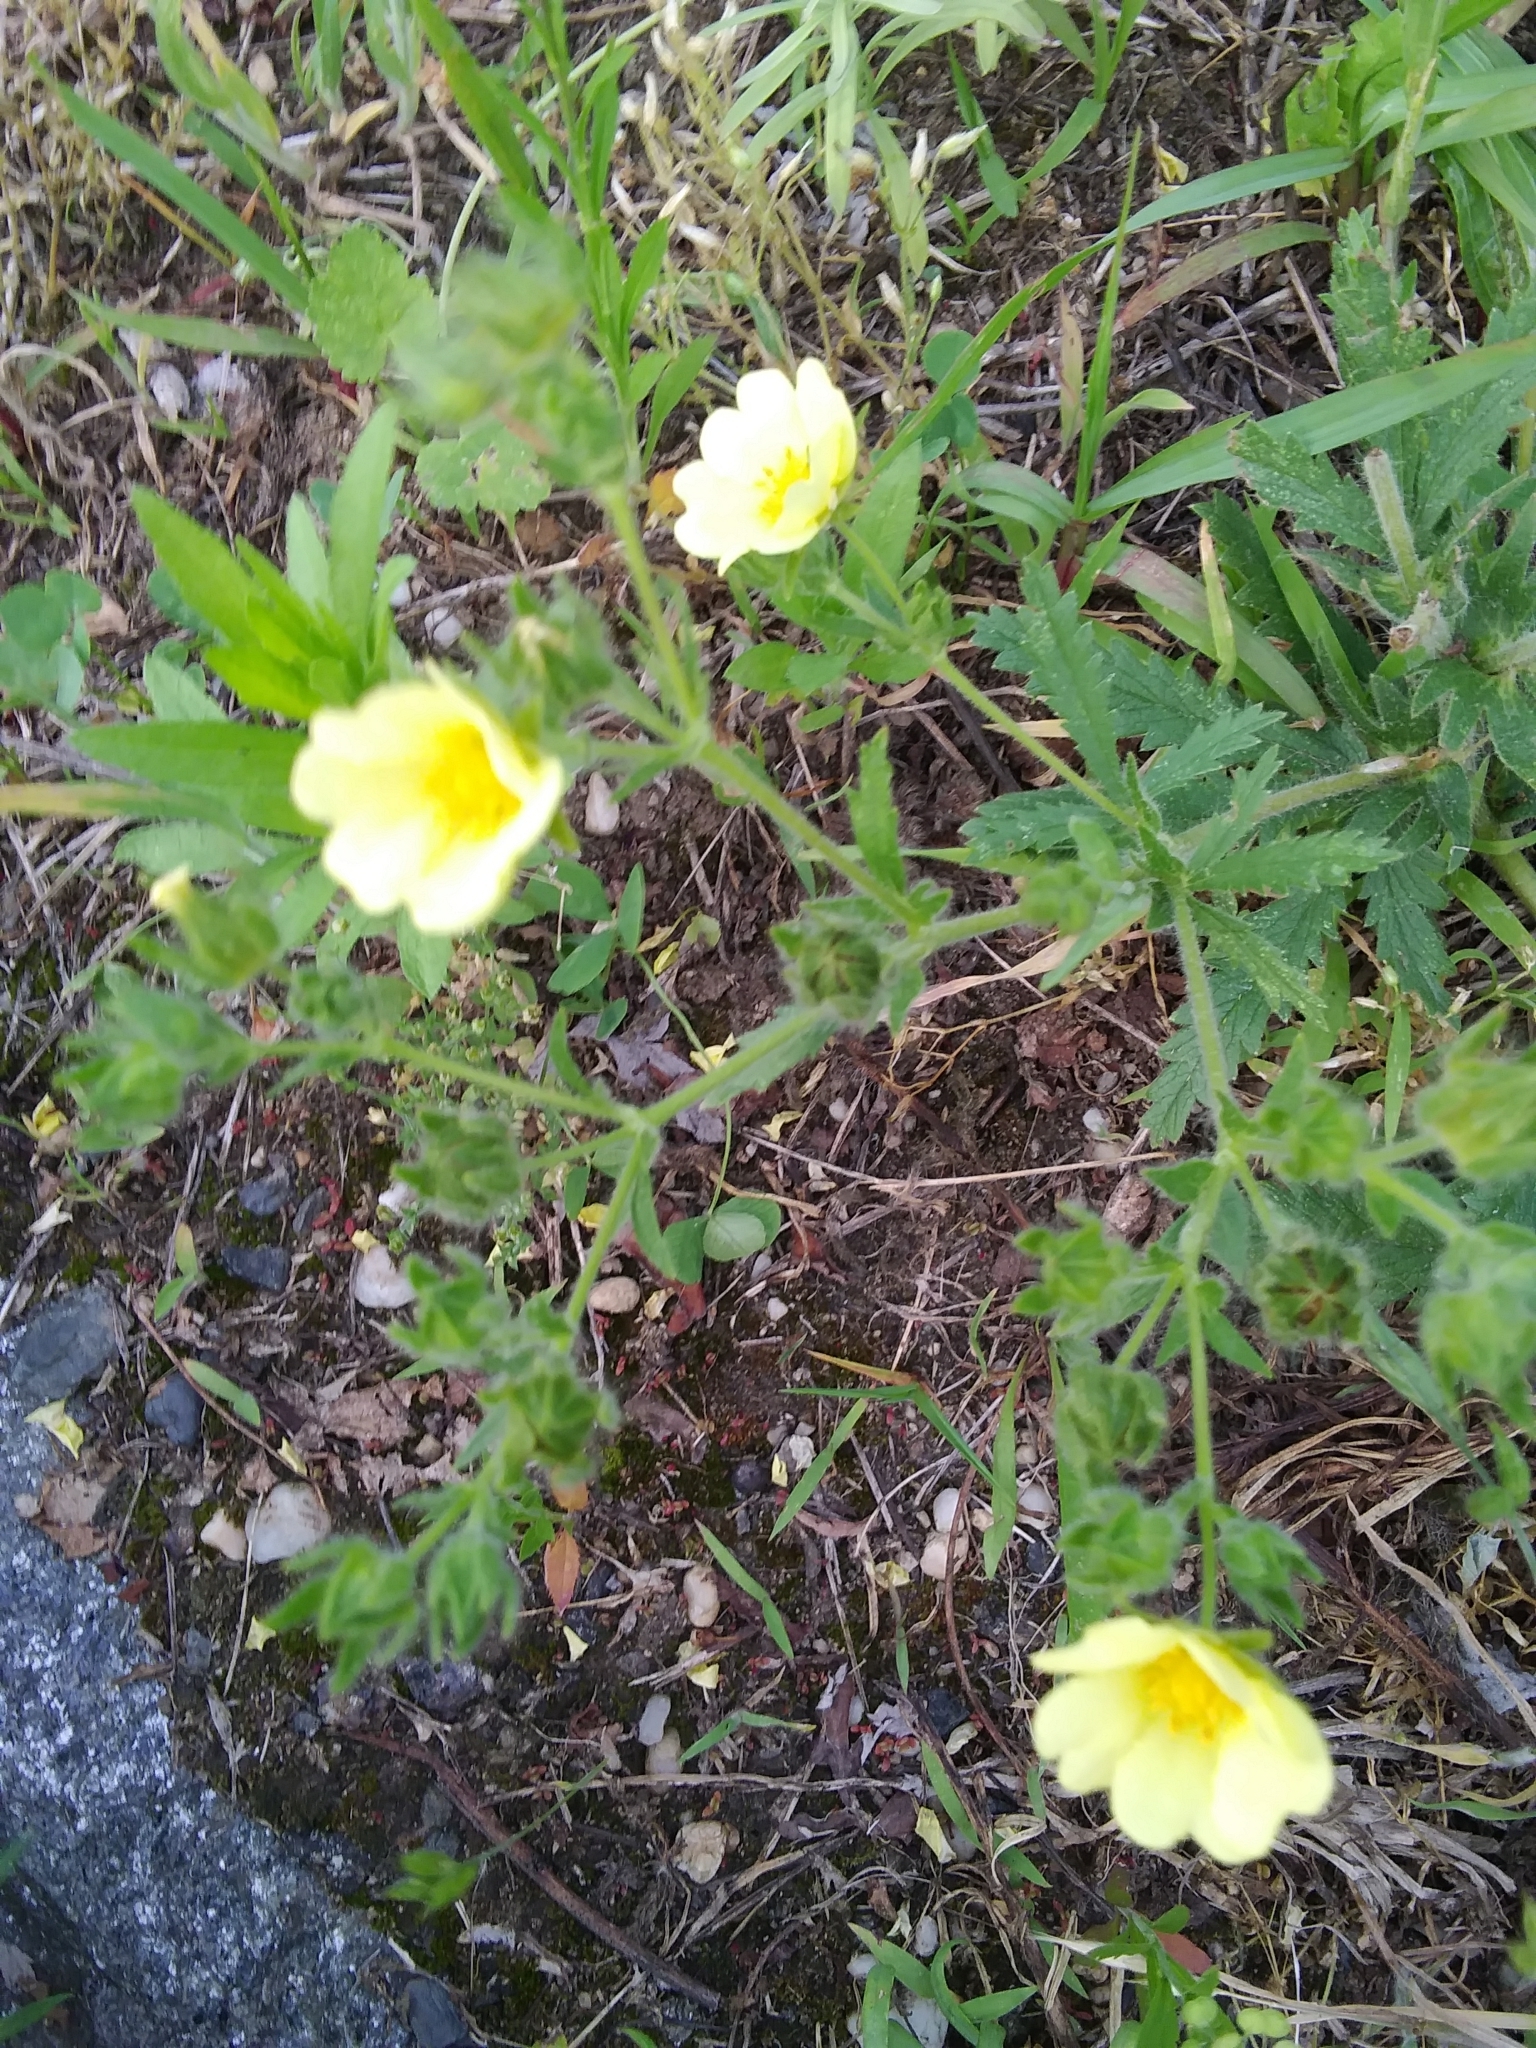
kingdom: Plantae
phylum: Tracheophyta
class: Magnoliopsida
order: Rosales
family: Rosaceae
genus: Potentilla
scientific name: Potentilla recta
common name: Sulphur cinquefoil
